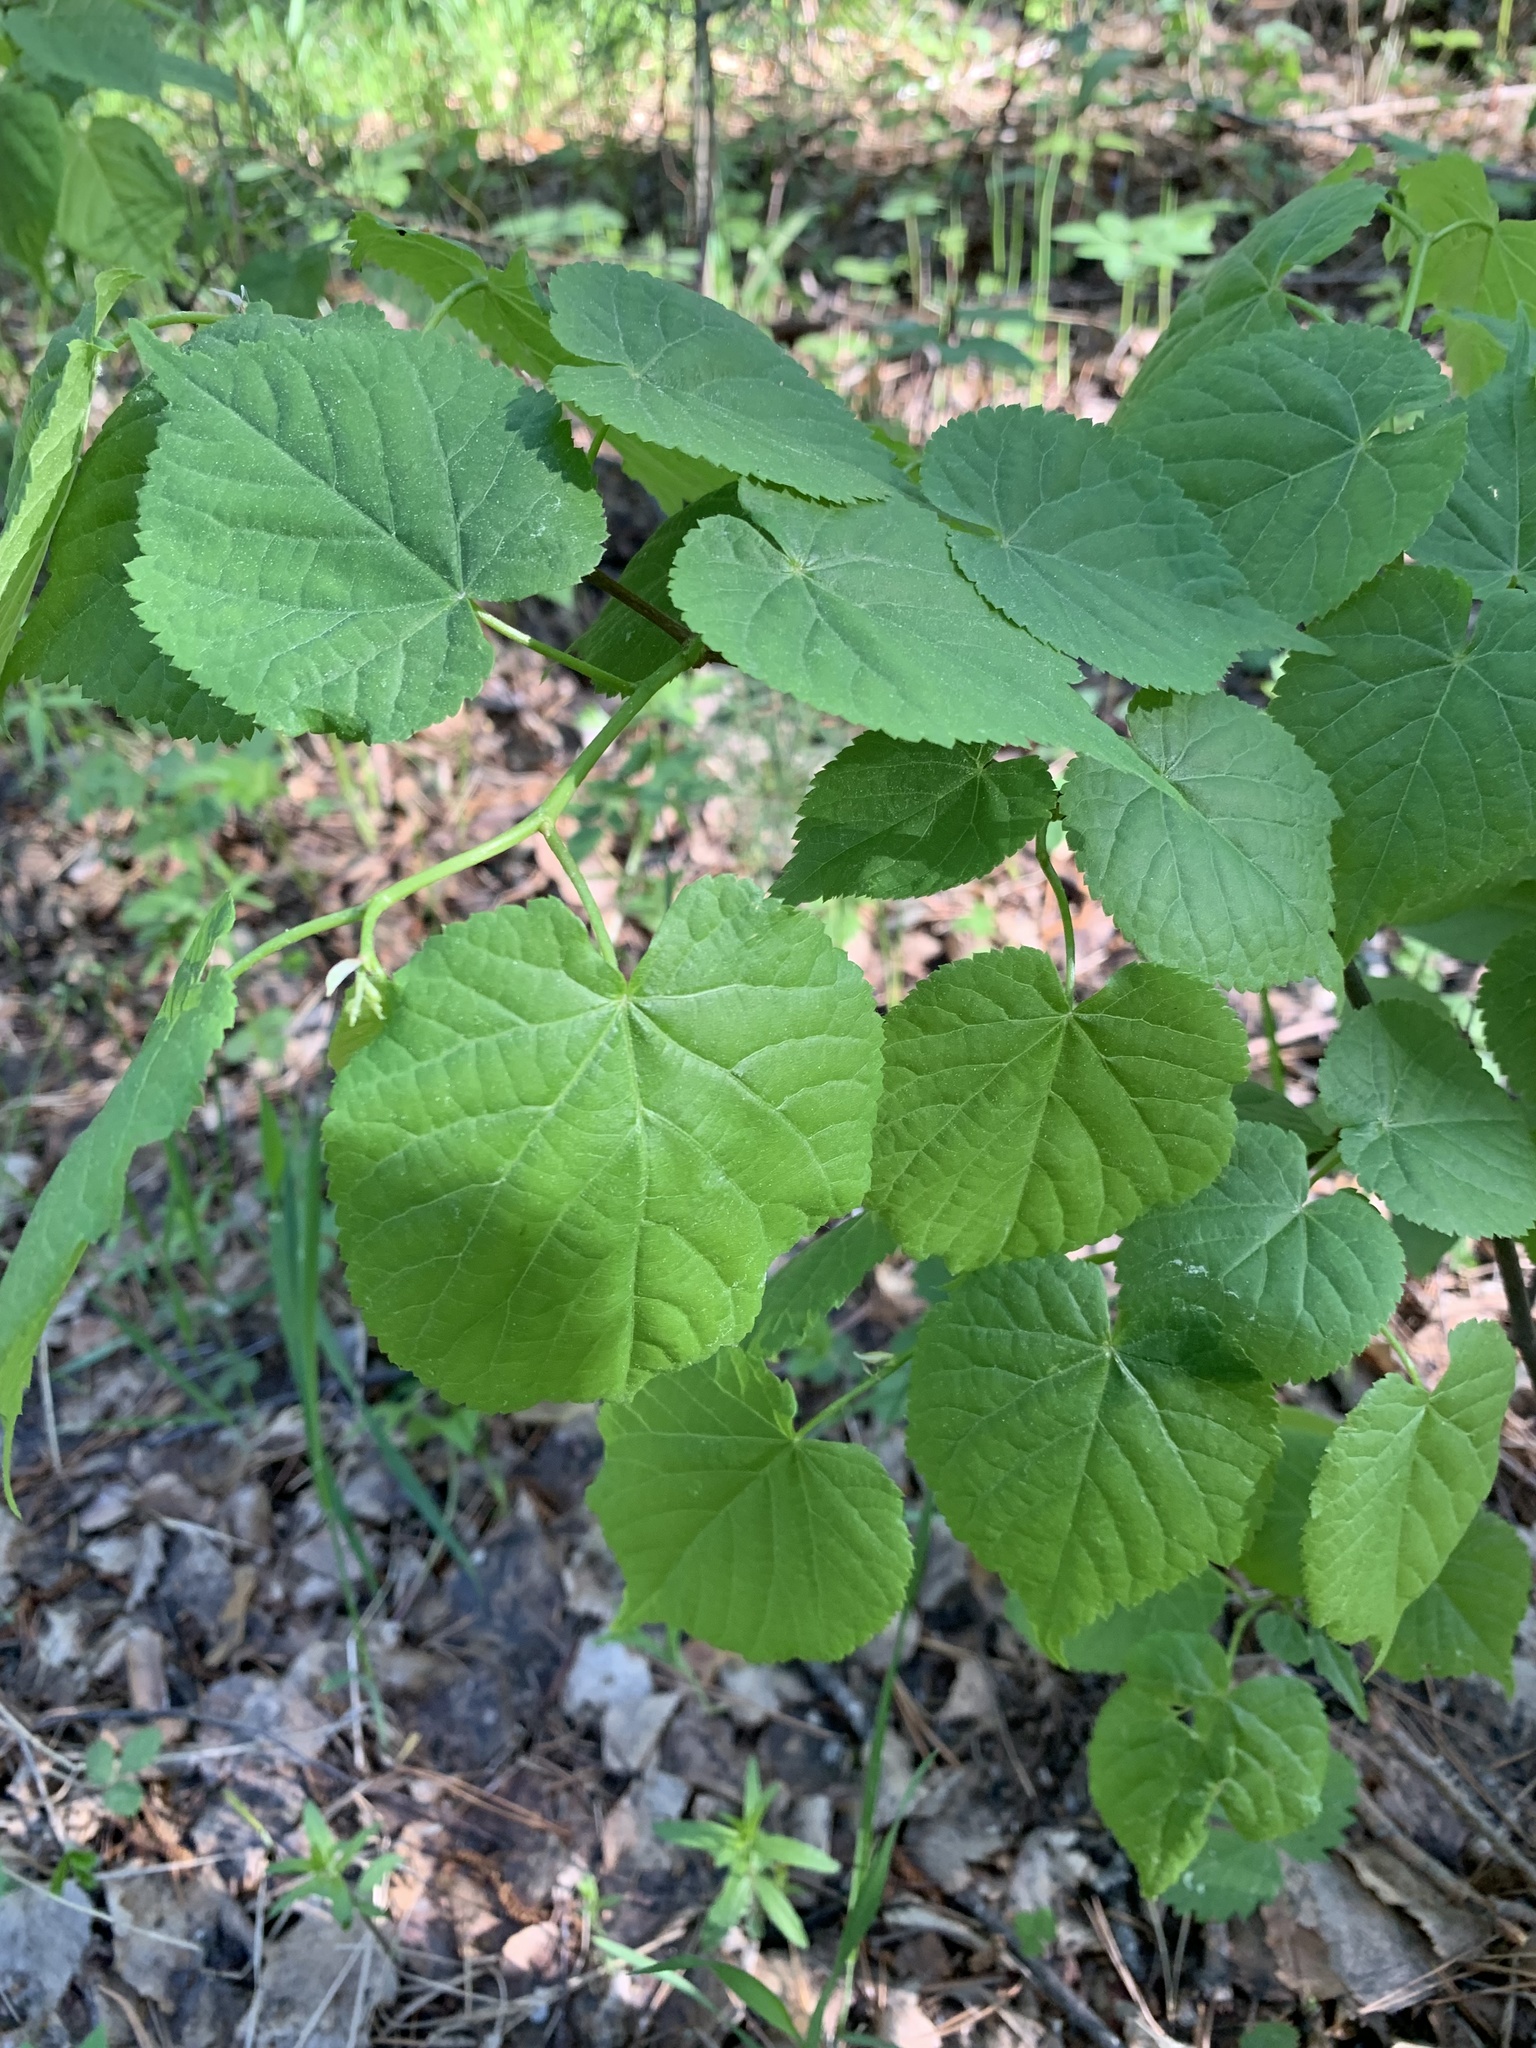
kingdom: Plantae
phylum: Tracheophyta
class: Magnoliopsida
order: Malvales
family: Malvaceae
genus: Tilia
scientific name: Tilia cordata
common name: Small-leaved lime
